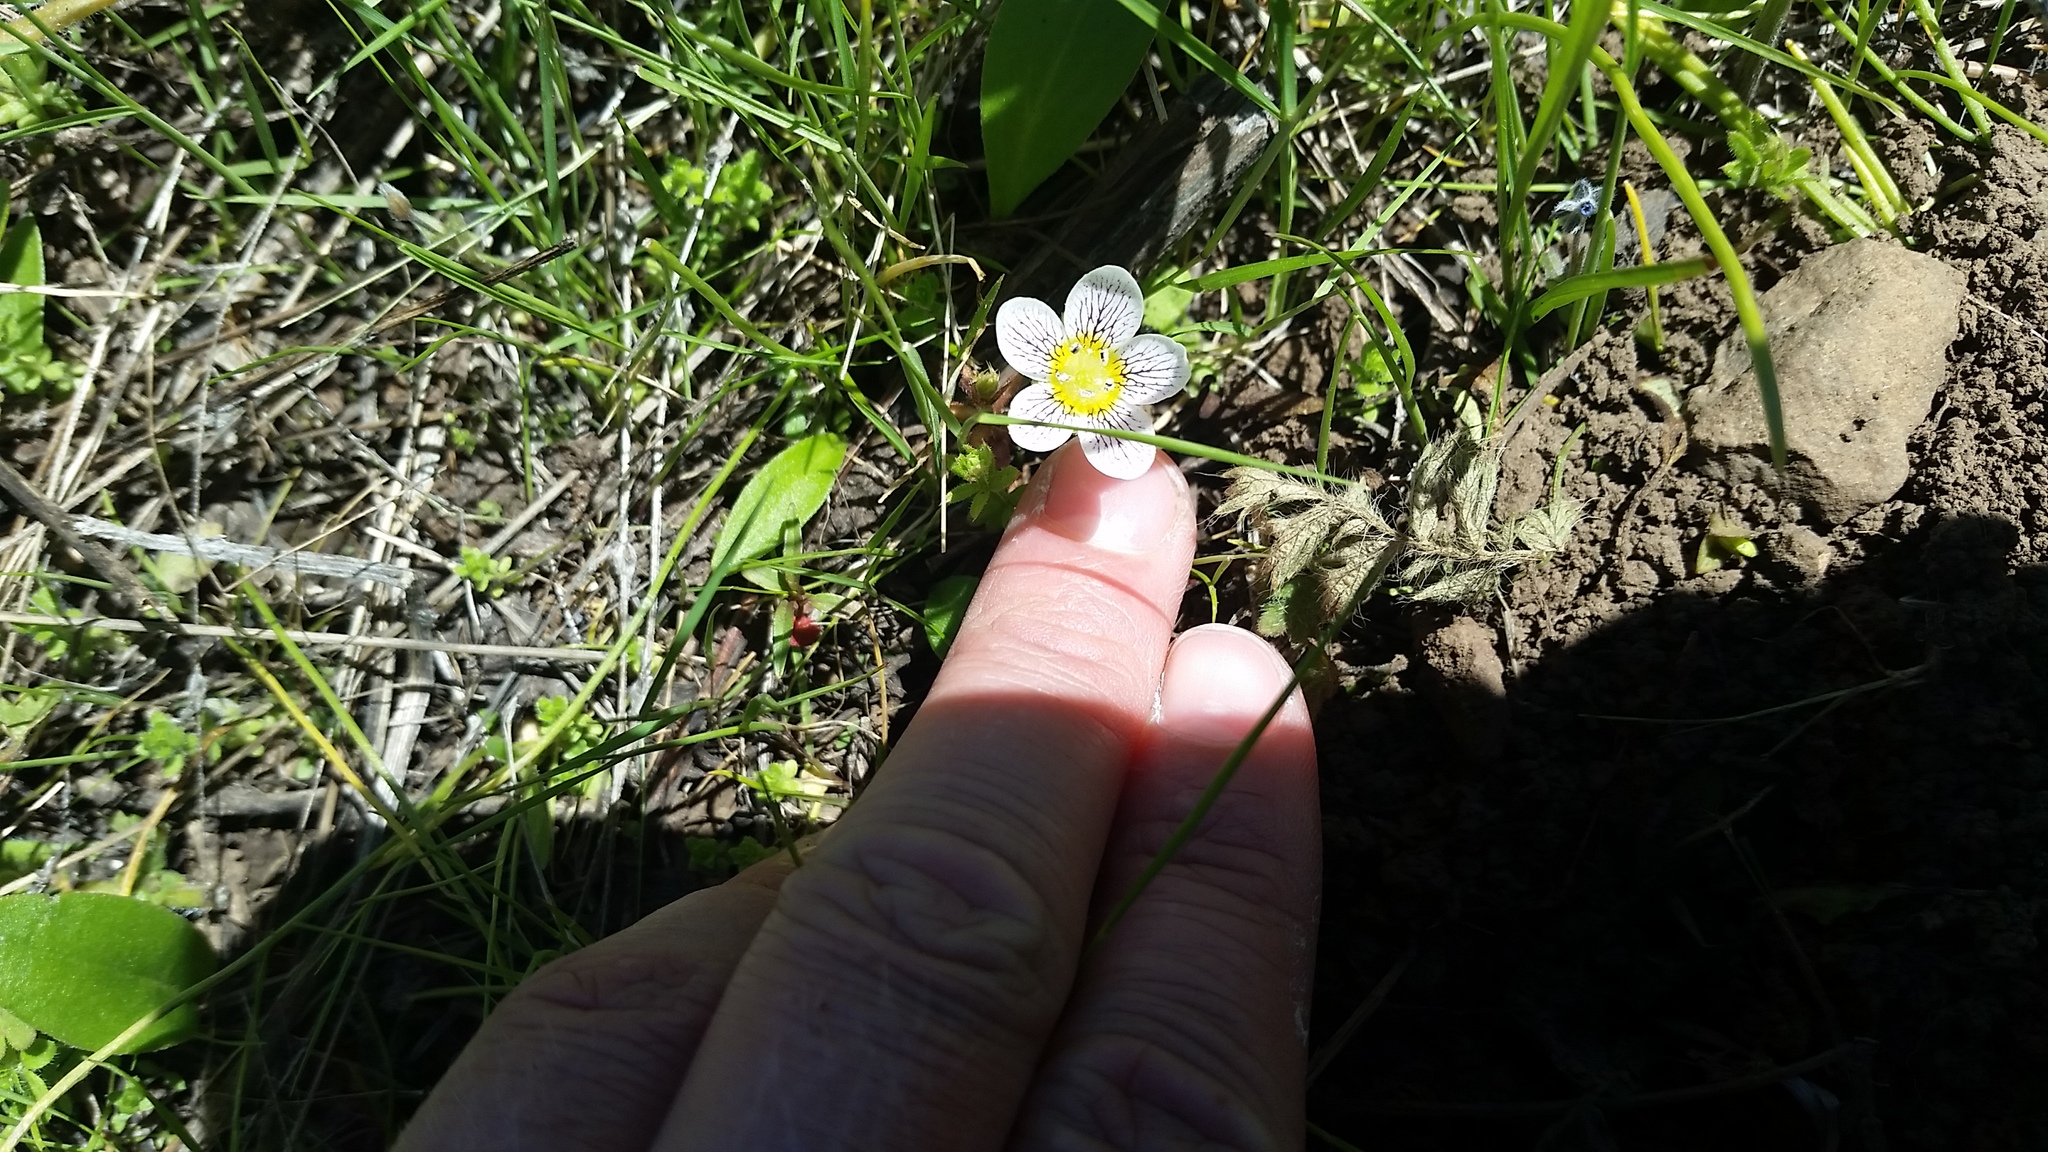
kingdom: Plantae
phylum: Tracheophyta
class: Magnoliopsida
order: Boraginales
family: Hydrophyllaceae
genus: Hesperochiron
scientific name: Hesperochiron pumilus
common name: Dwarf hesperochiron
